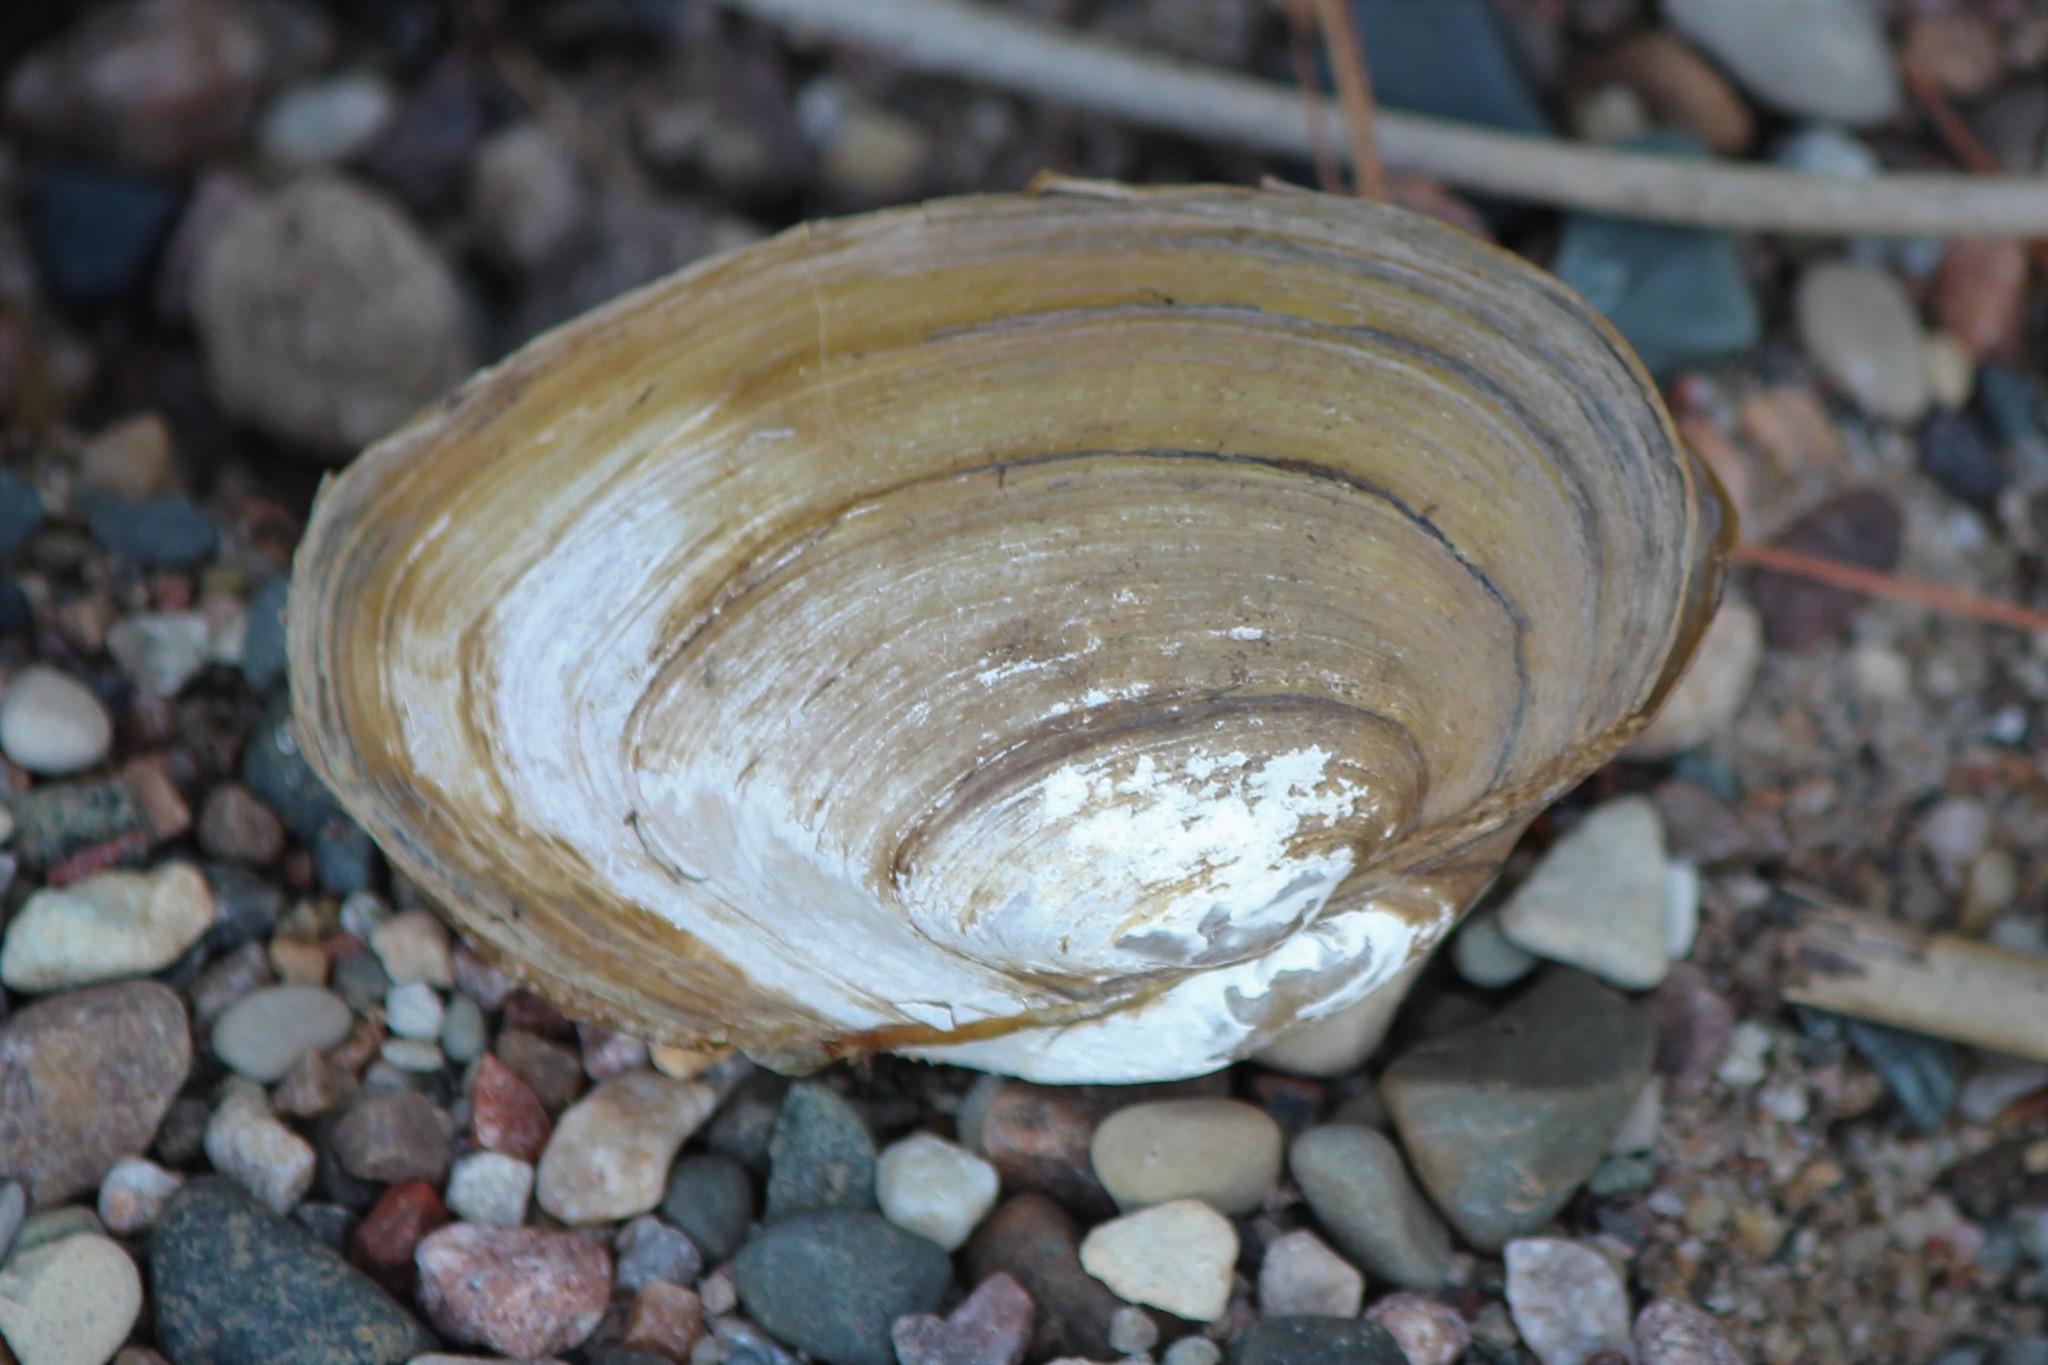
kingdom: Animalia
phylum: Mollusca
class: Bivalvia
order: Unionida
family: Unionidae
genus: Pyganodon
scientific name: Pyganodon grandis
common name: Giant floater
